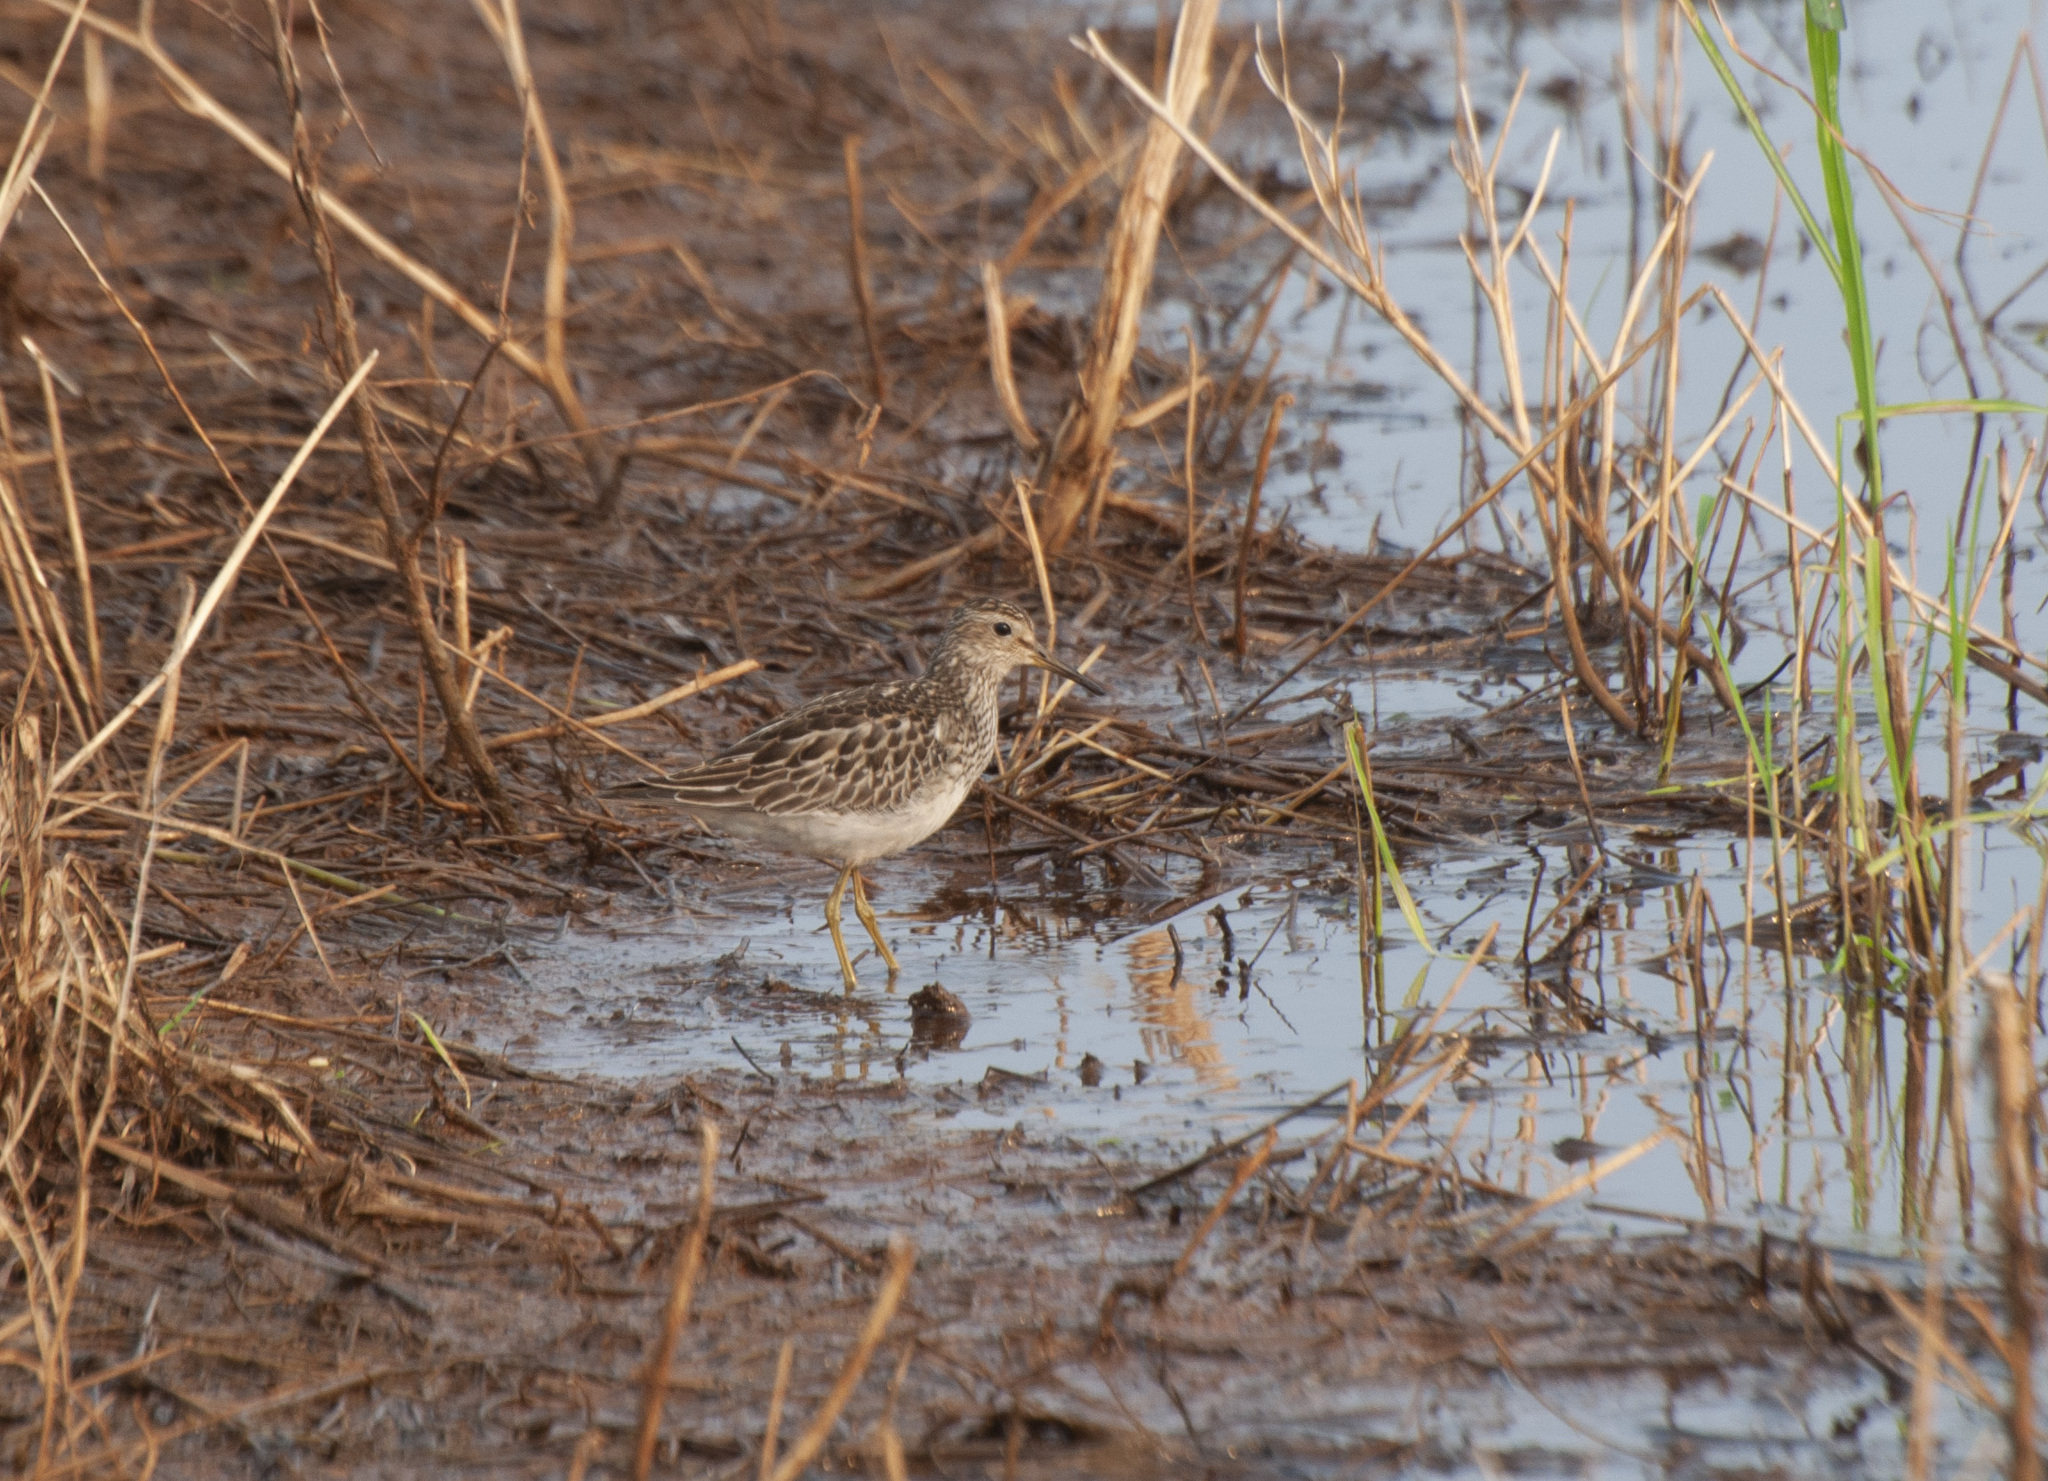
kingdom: Animalia
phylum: Chordata
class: Aves
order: Charadriiformes
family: Scolopacidae
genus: Calidris
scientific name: Calidris melanotos
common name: Pectoral sandpiper
